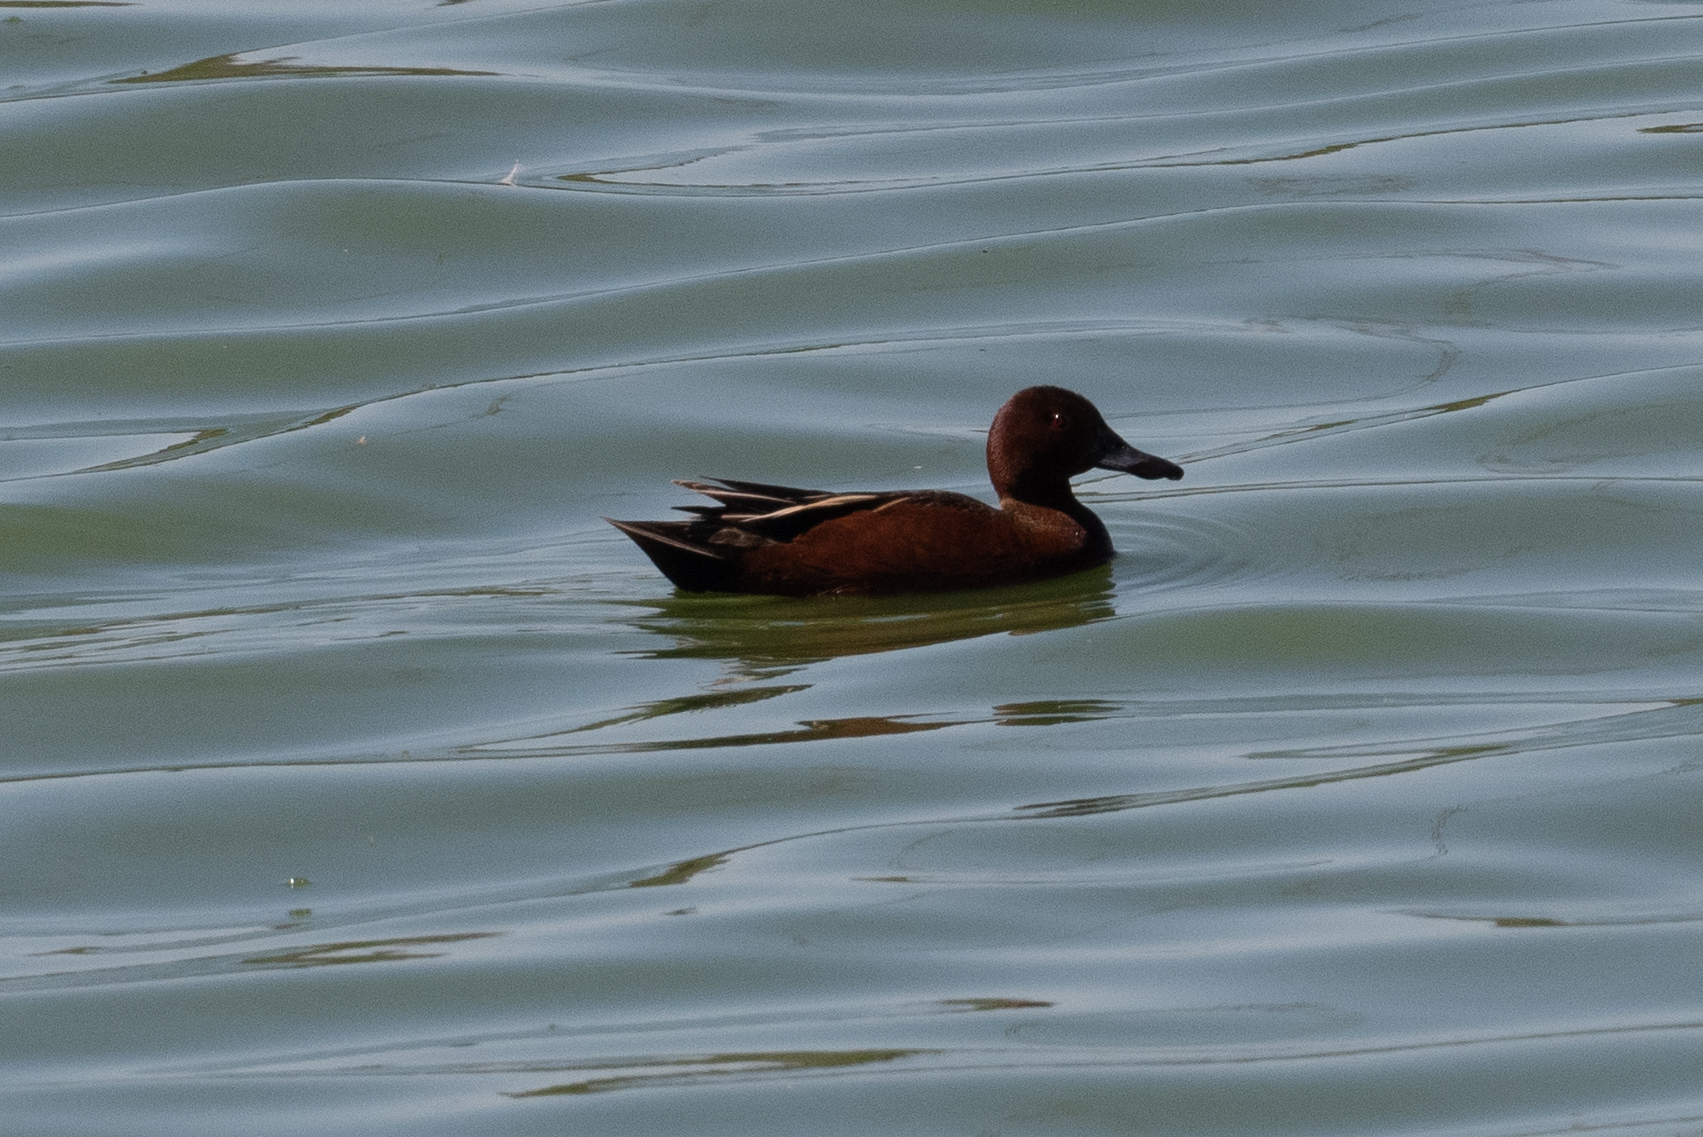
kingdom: Animalia
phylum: Chordata
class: Aves
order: Anseriformes
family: Anatidae
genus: Spatula
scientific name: Spatula cyanoptera
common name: Cinnamon teal
